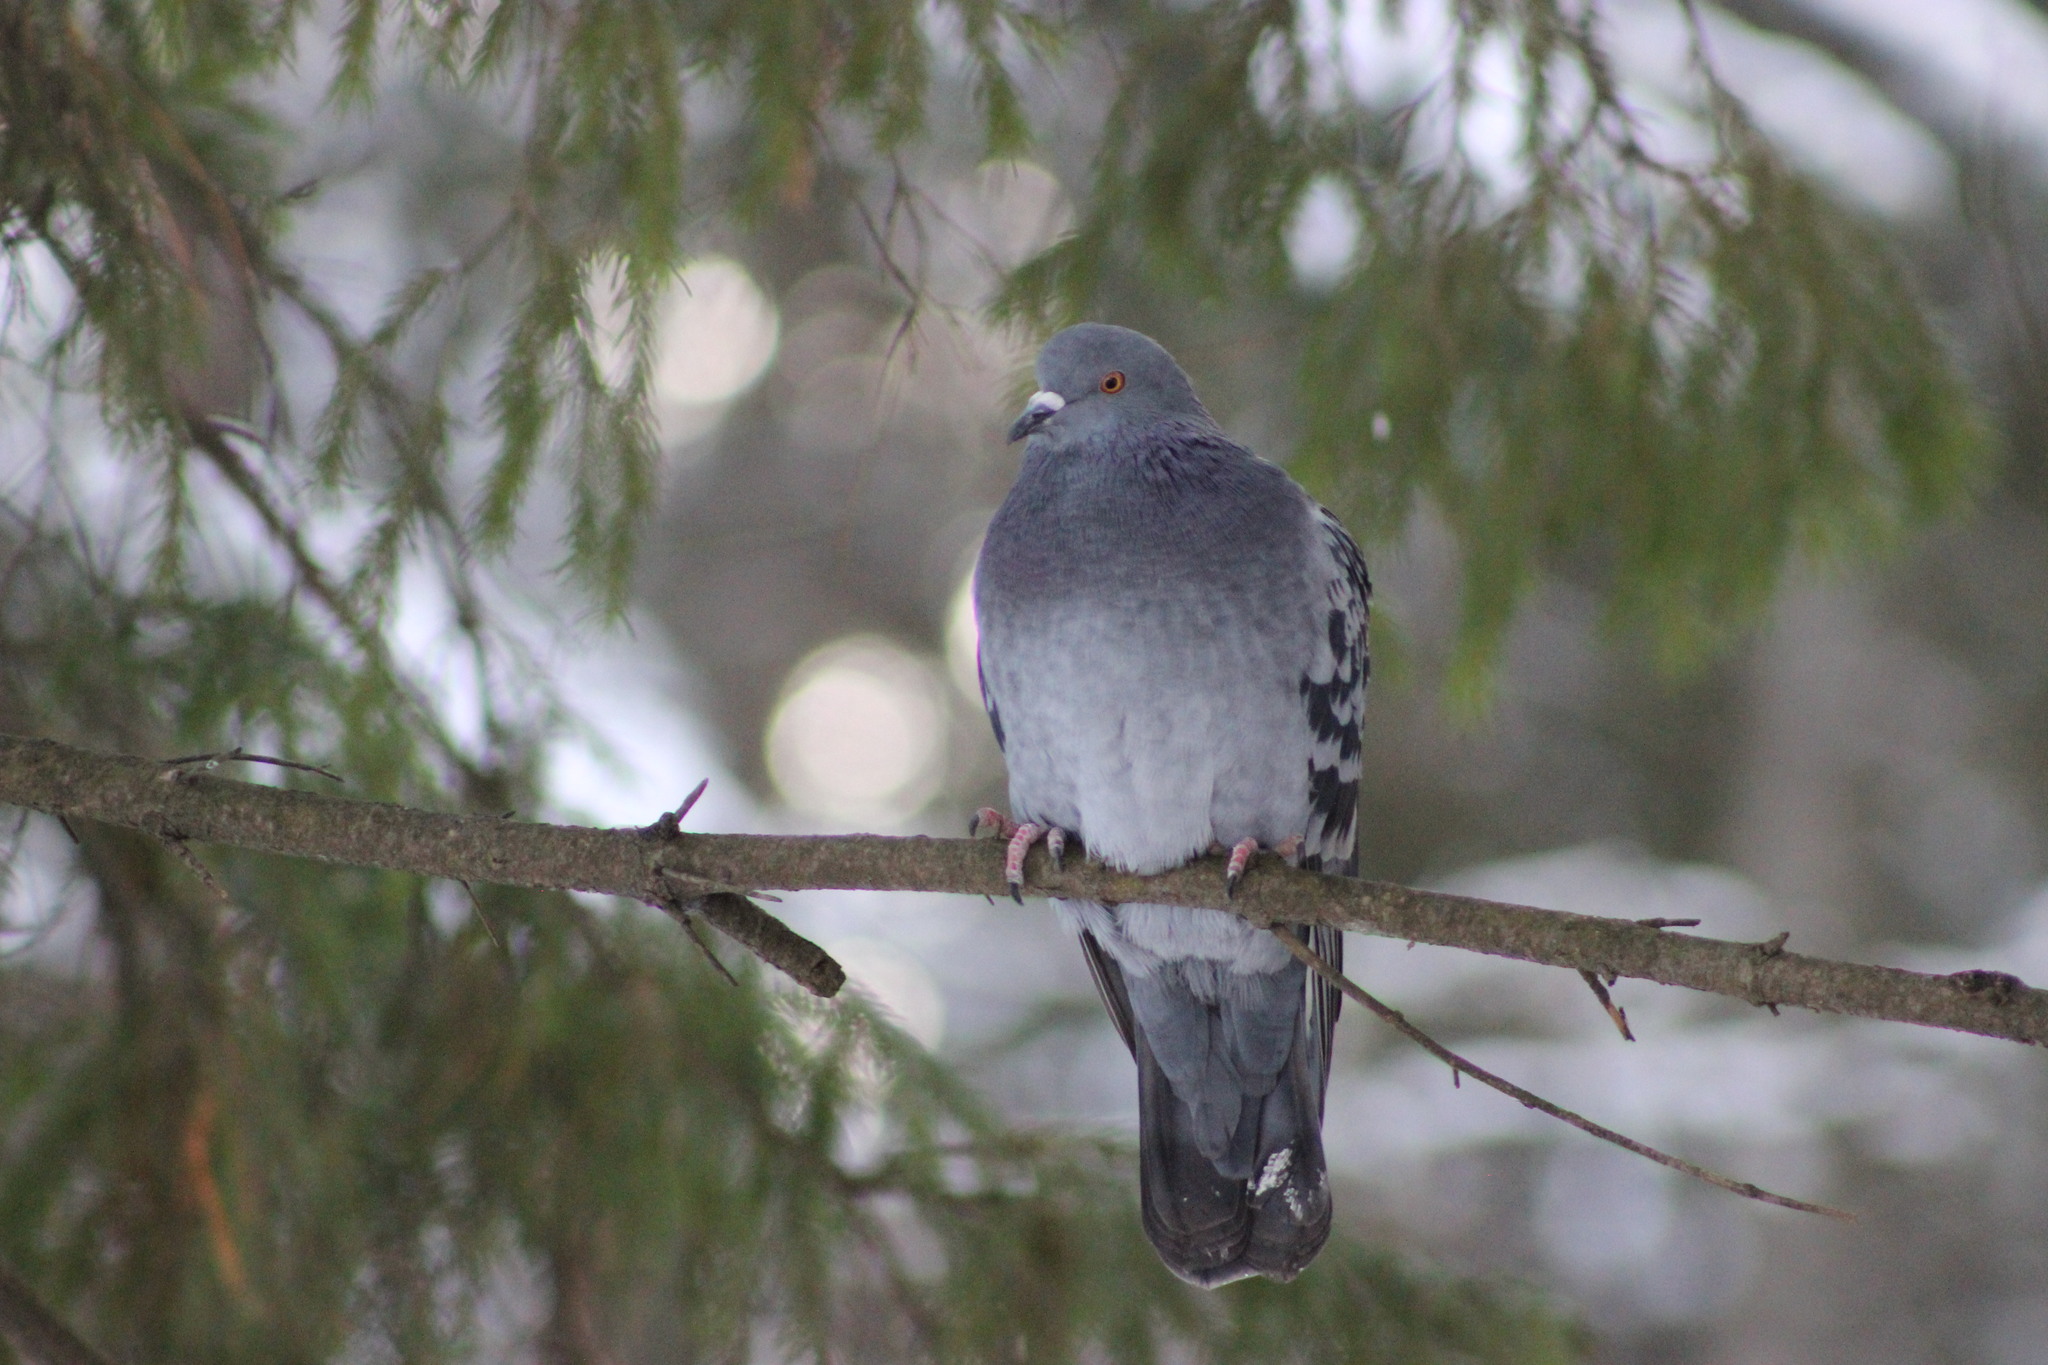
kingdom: Animalia
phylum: Chordata
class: Aves
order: Columbiformes
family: Columbidae
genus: Columba
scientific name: Columba livia
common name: Rock pigeon
